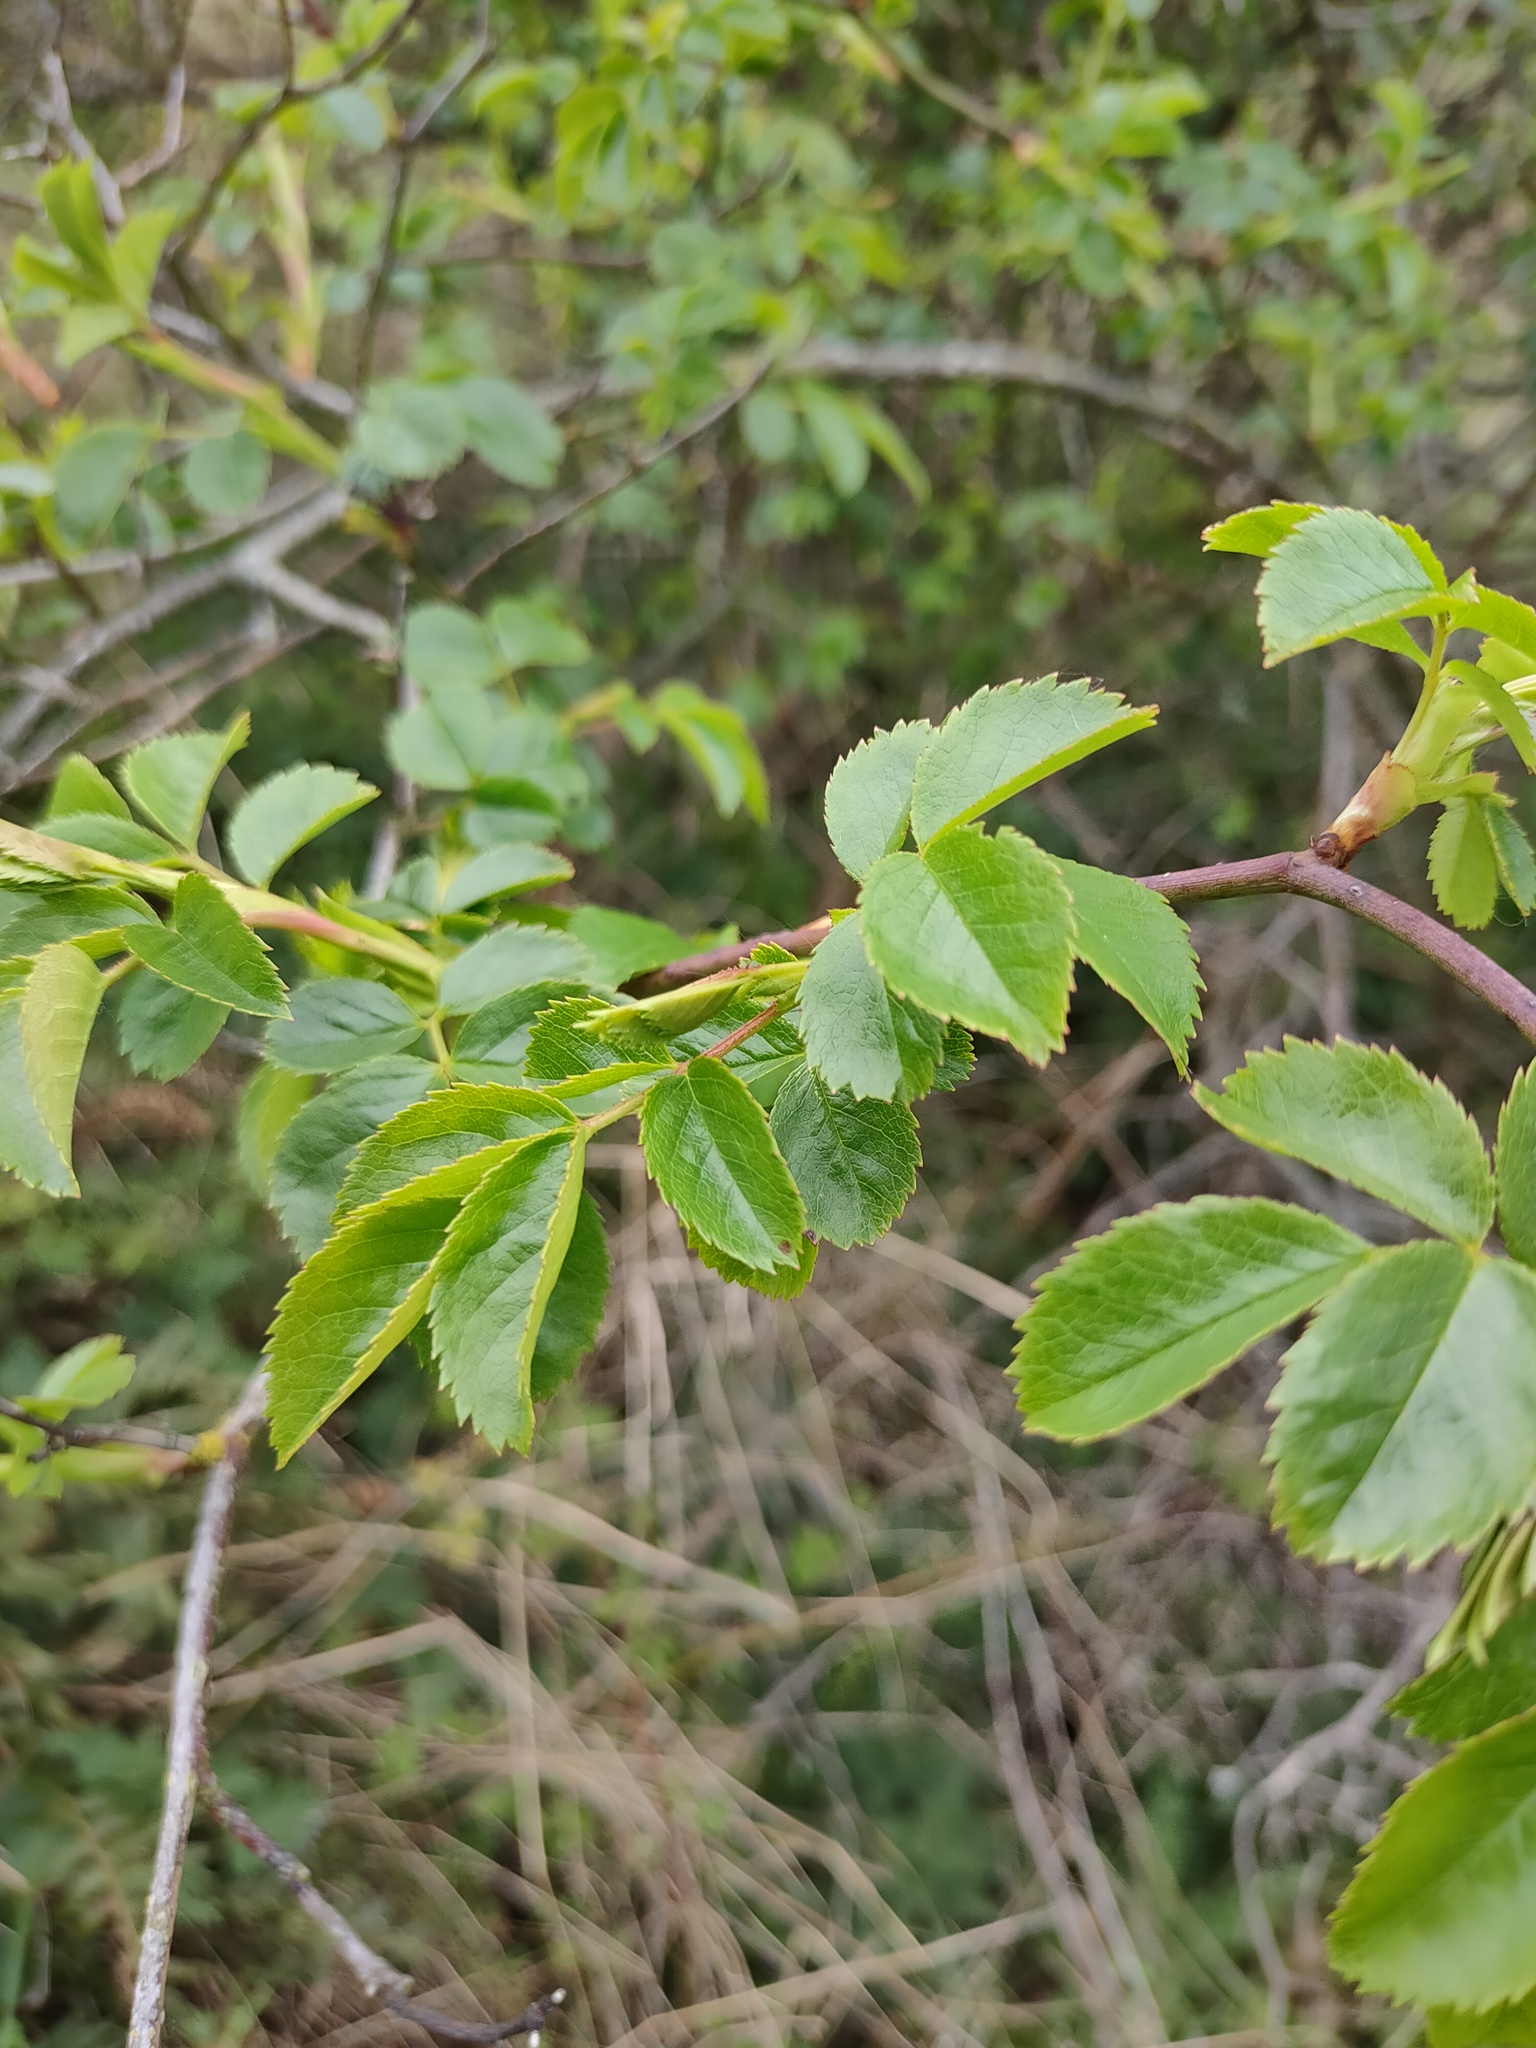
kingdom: Plantae
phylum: Tracheophyta
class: Magnoliopsida
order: Rosales
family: Rosaceae
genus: Rosa
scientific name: Rosa canina
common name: Dog rose
